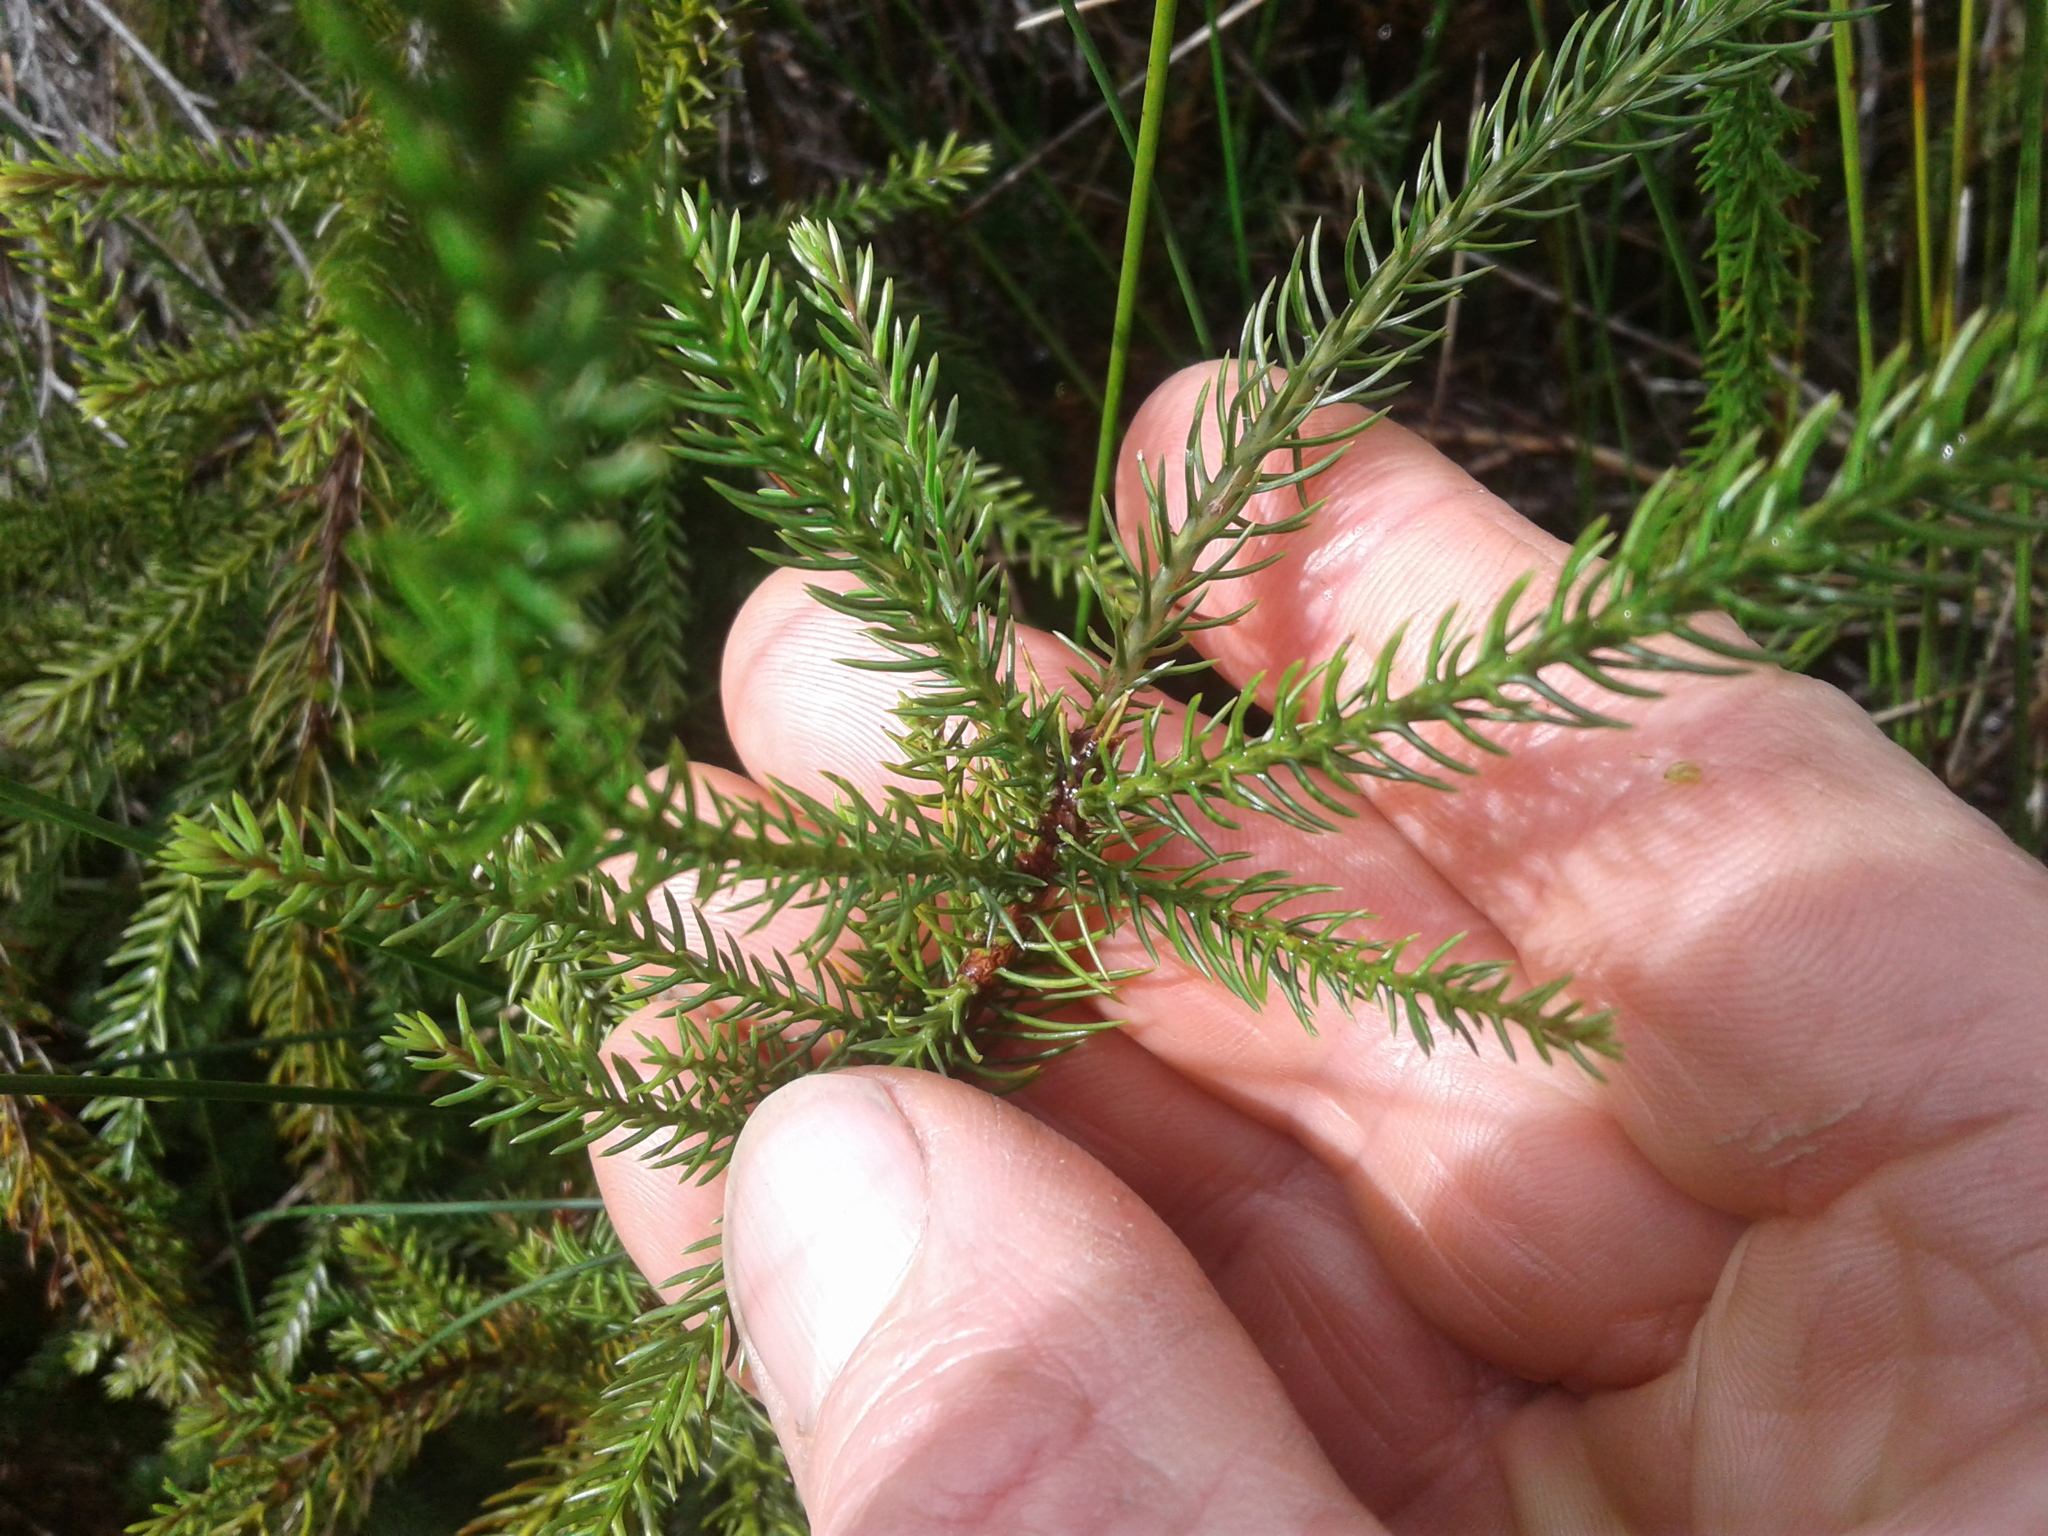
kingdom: Plantae
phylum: Tracheophyta
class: Pinopsida
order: Pinales
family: Podocarpaceae
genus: Dacrydium
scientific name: Dacrydium cupressinum
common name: Red pine
